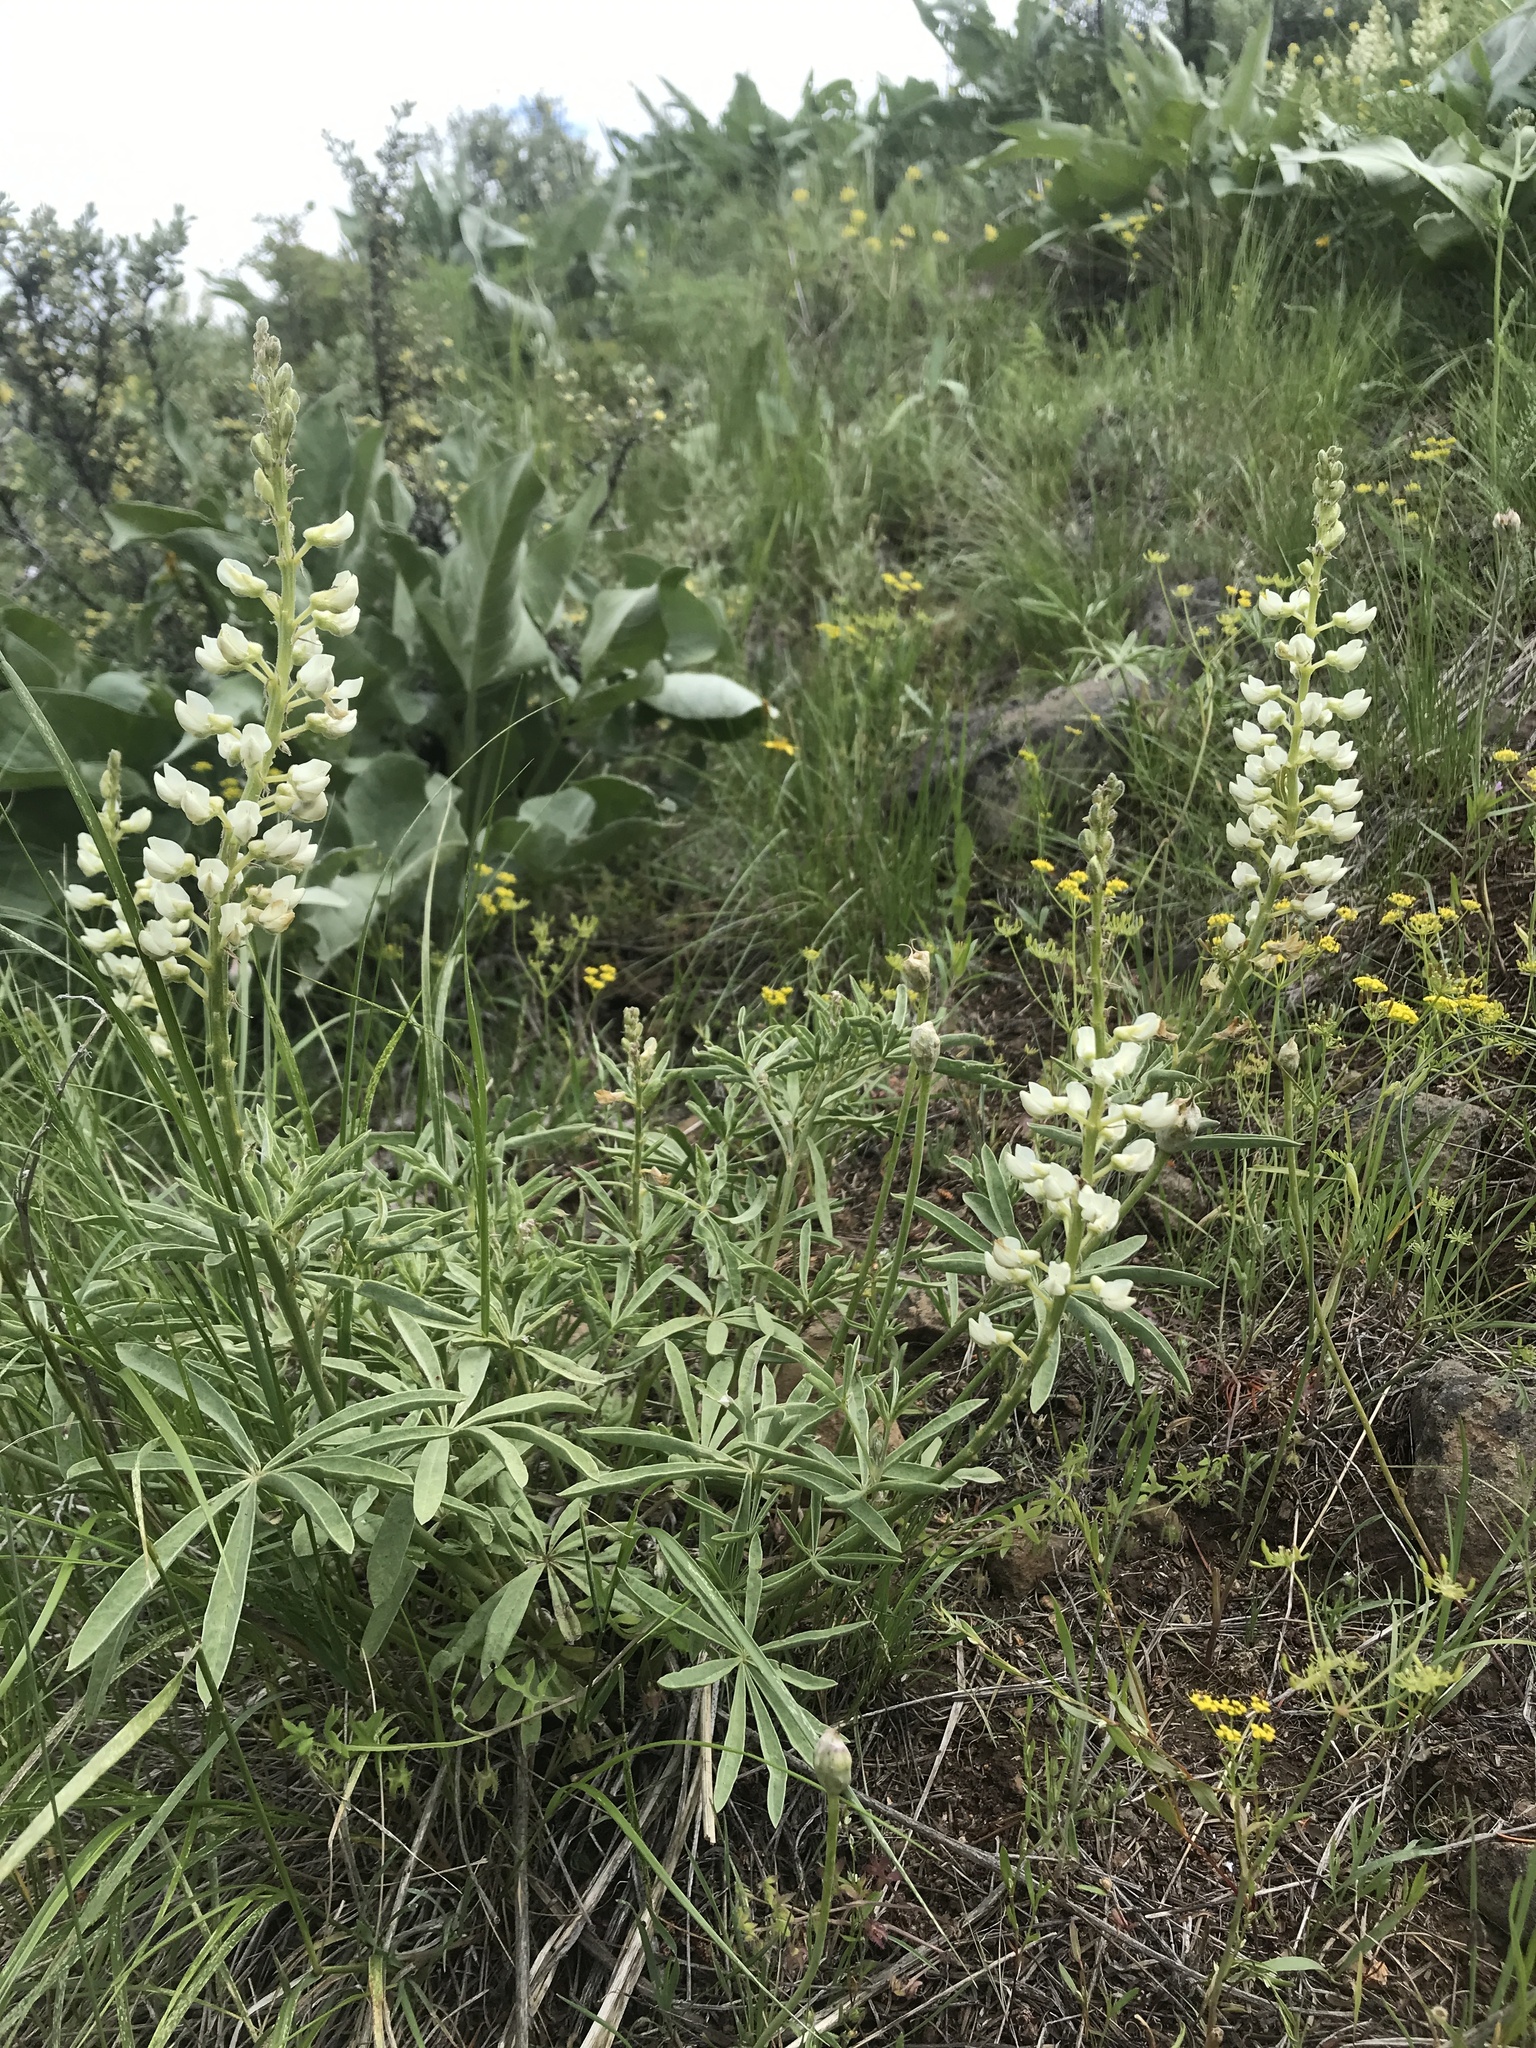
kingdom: Plantae
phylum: Tracheophyta
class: Magnoliopsida
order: Fabales
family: Fabaceae
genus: Lupinus
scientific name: Lupinus sulphureus
